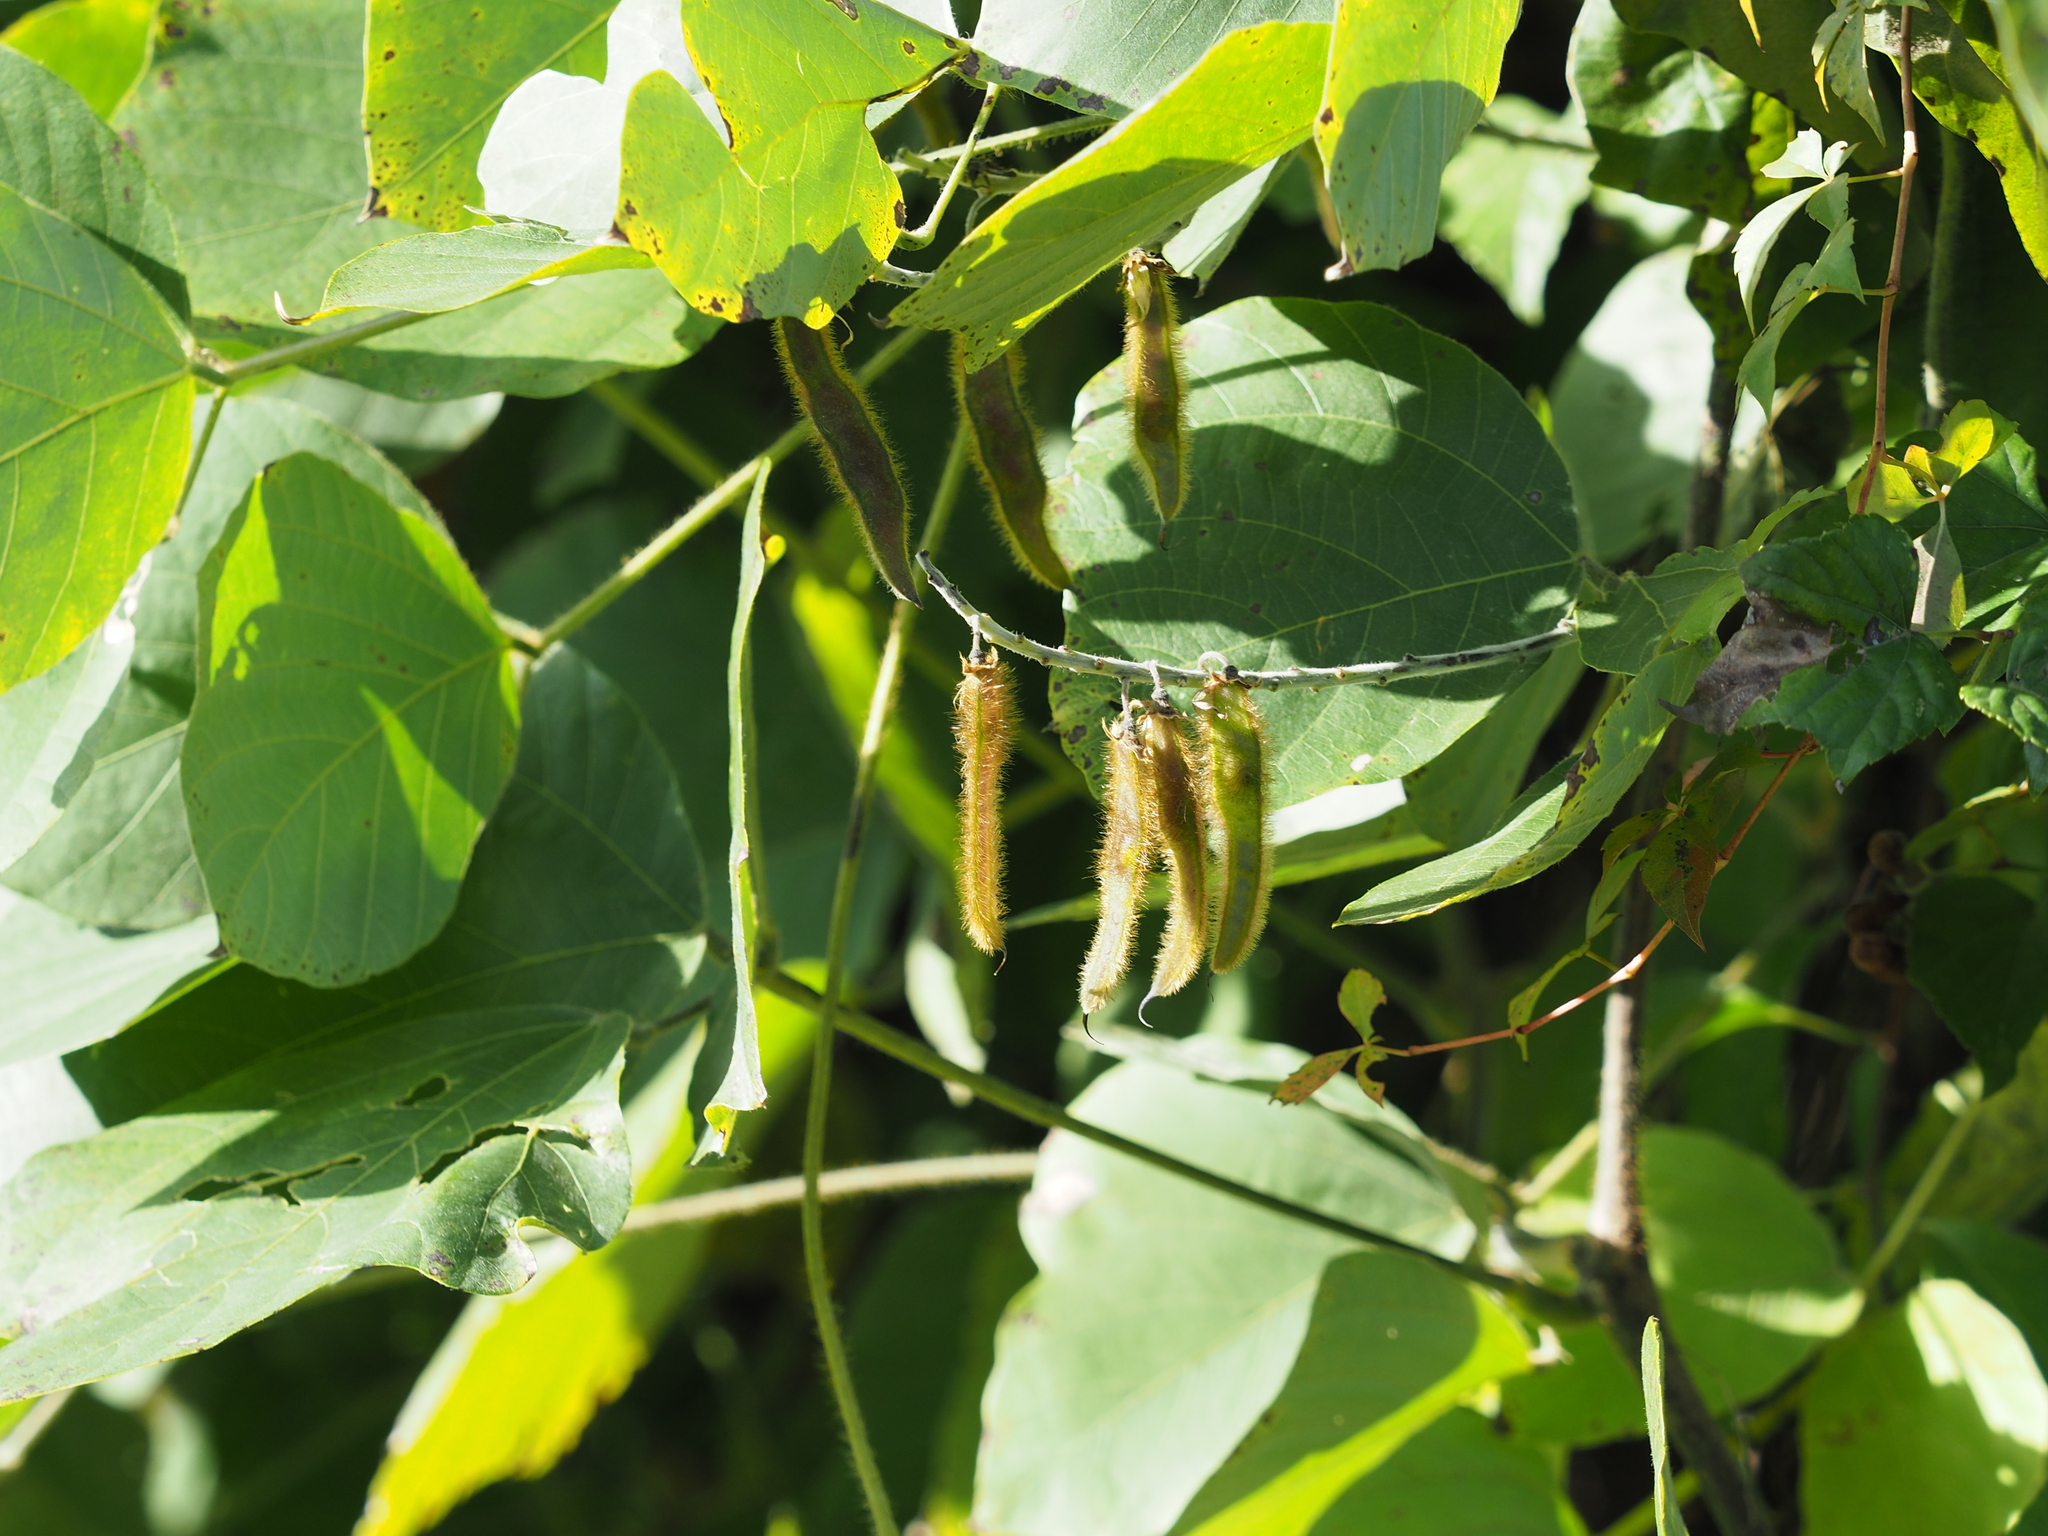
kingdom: Plantae
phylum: Tracheophyta
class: Magnoliopsida
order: Fabales
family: Fabaceae
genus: Pueraria
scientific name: Pueraria montana
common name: Kudzu
